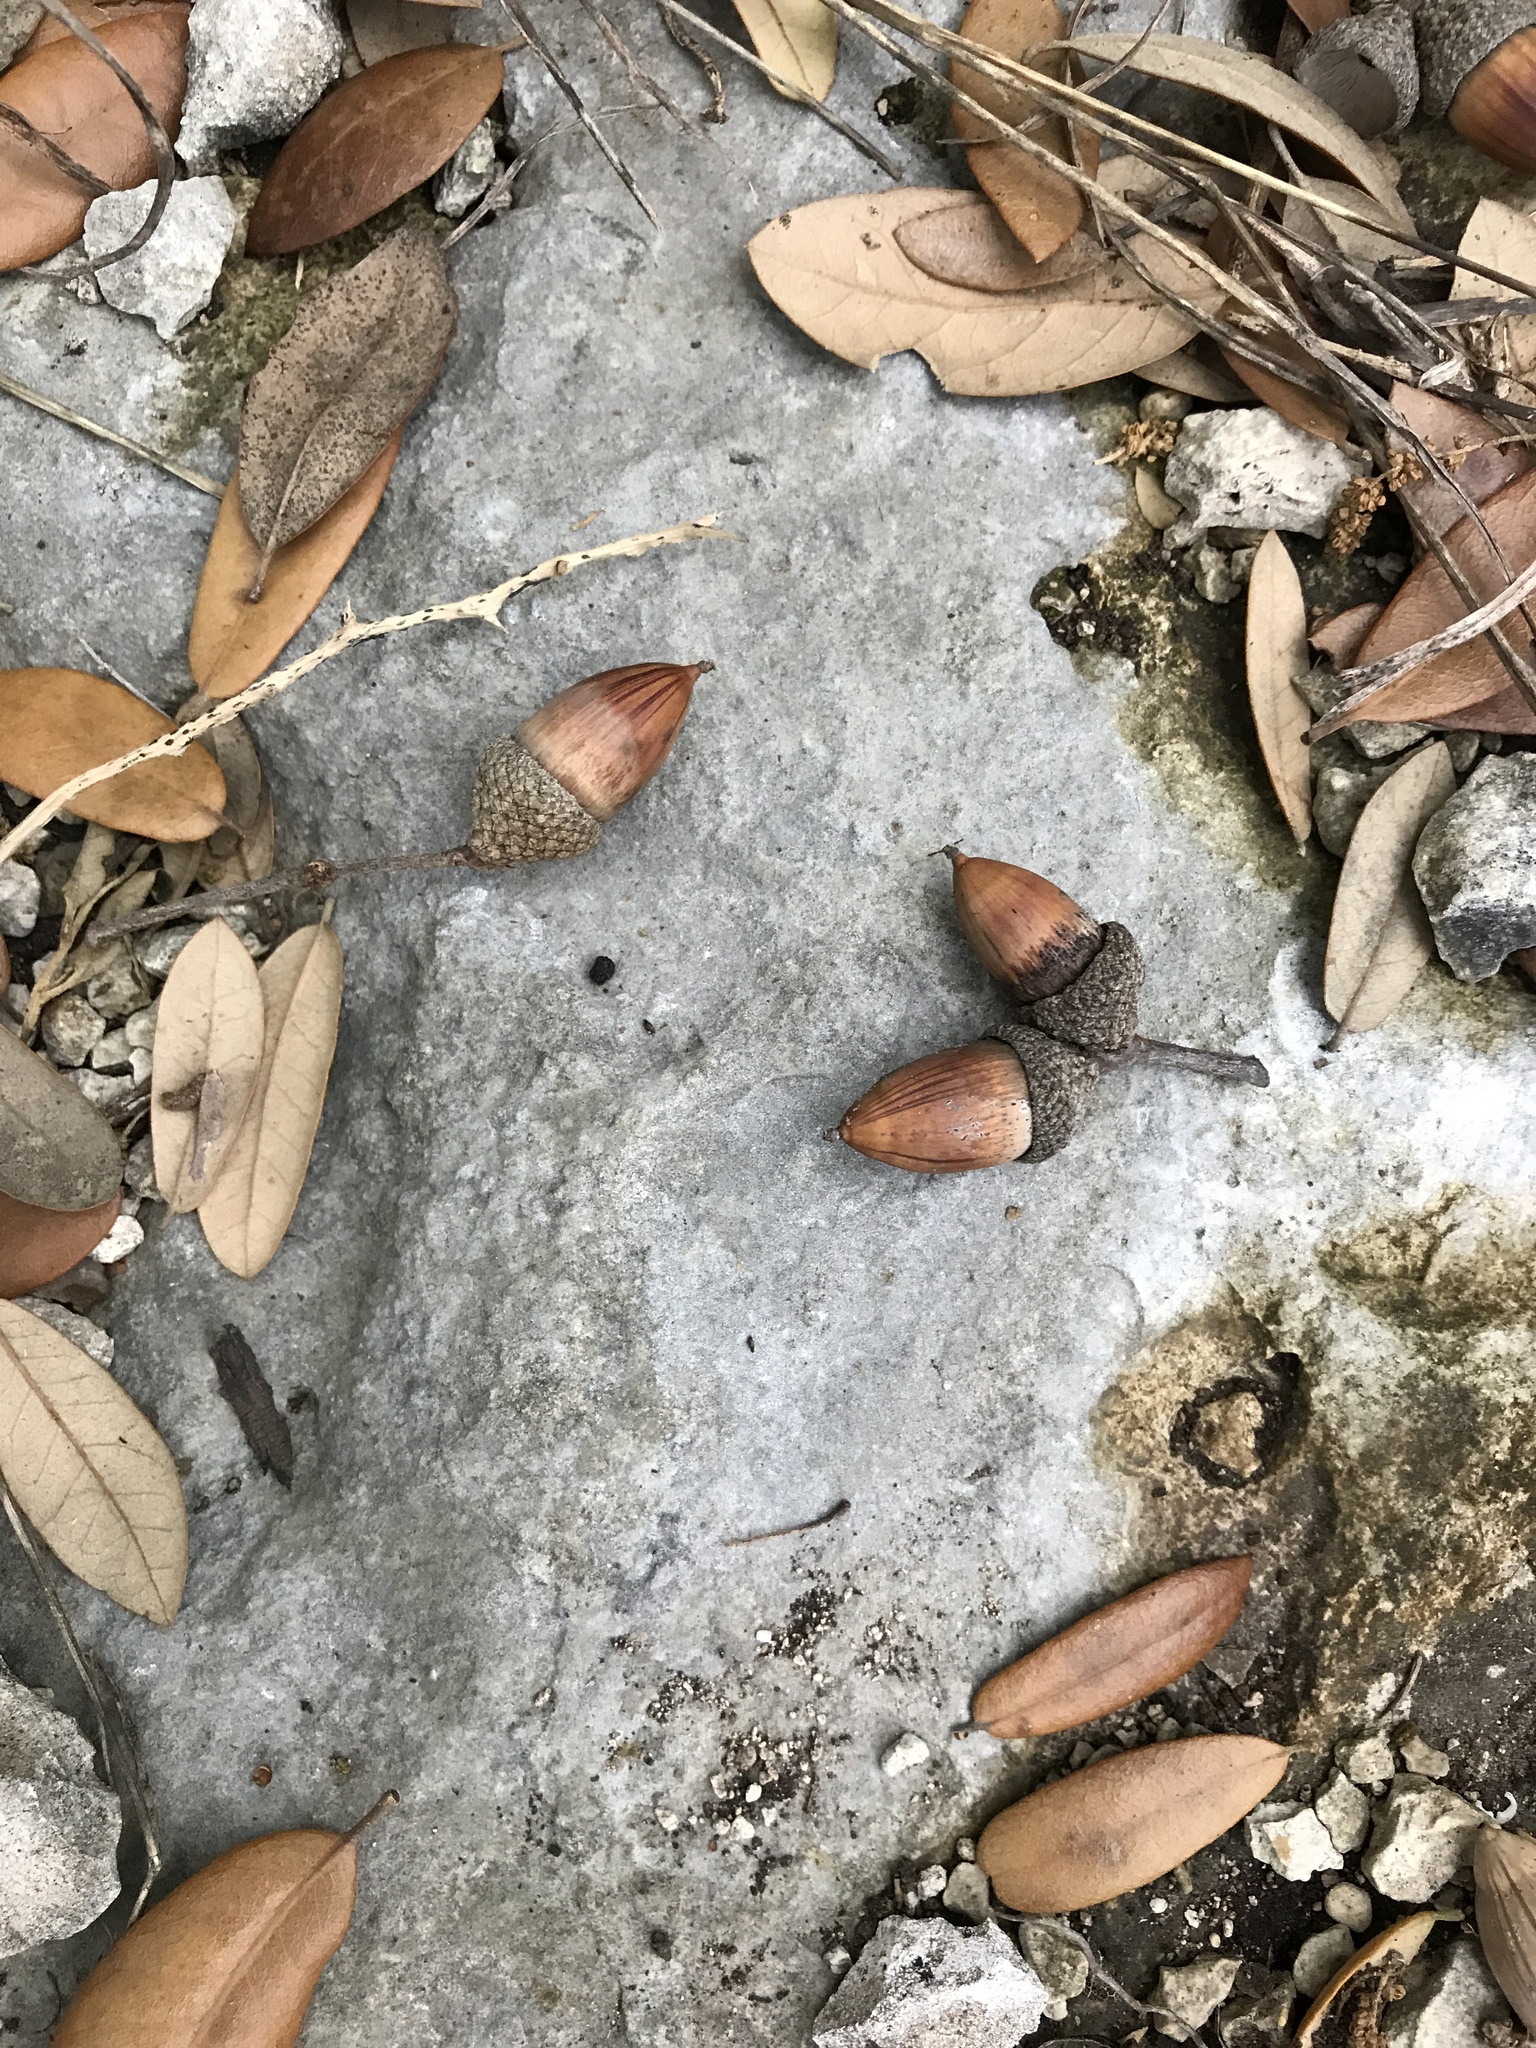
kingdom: Plantae
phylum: Tracheophyta
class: Magnoliopsida
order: Fagales
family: Fagaceae
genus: Quercus
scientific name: Quercus fusiformis
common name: Texas live oak
